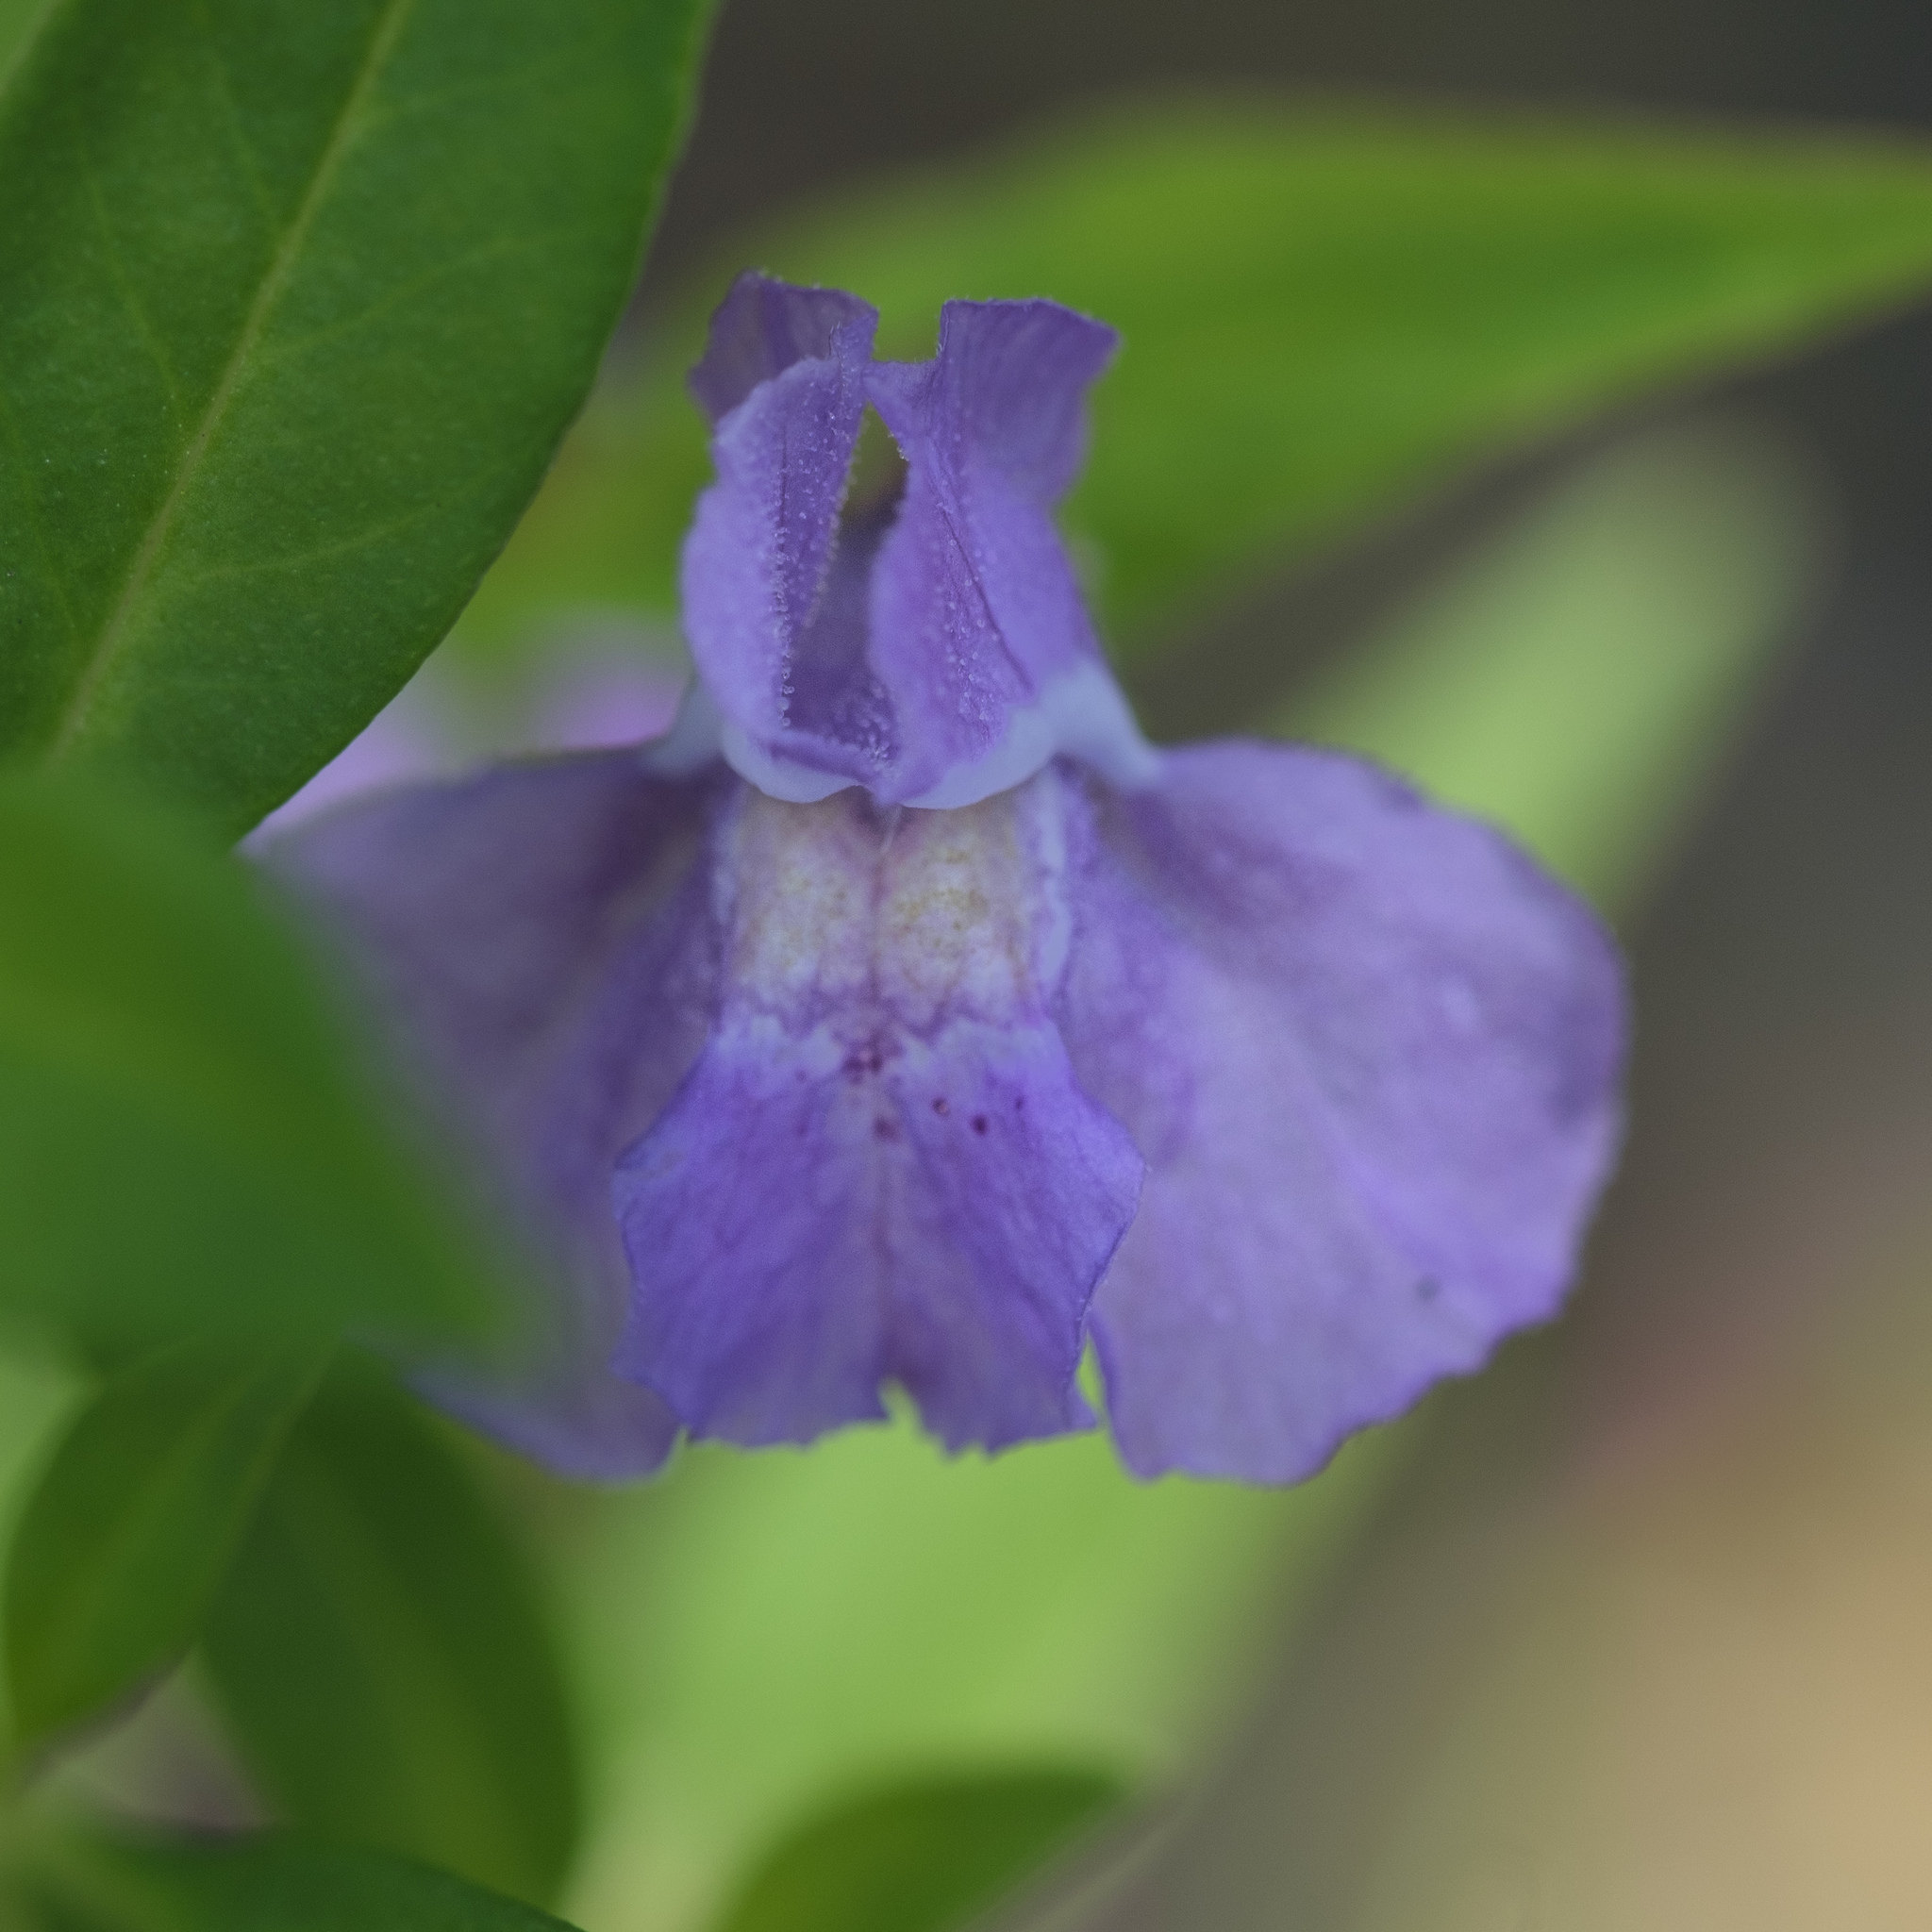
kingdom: Plantae
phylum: Tracheophyta
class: Magnoliopsida
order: Lamiales
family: Phrymaceae
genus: Mimulus
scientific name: Mimulus ringens
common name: Allegheny monkeyflower
